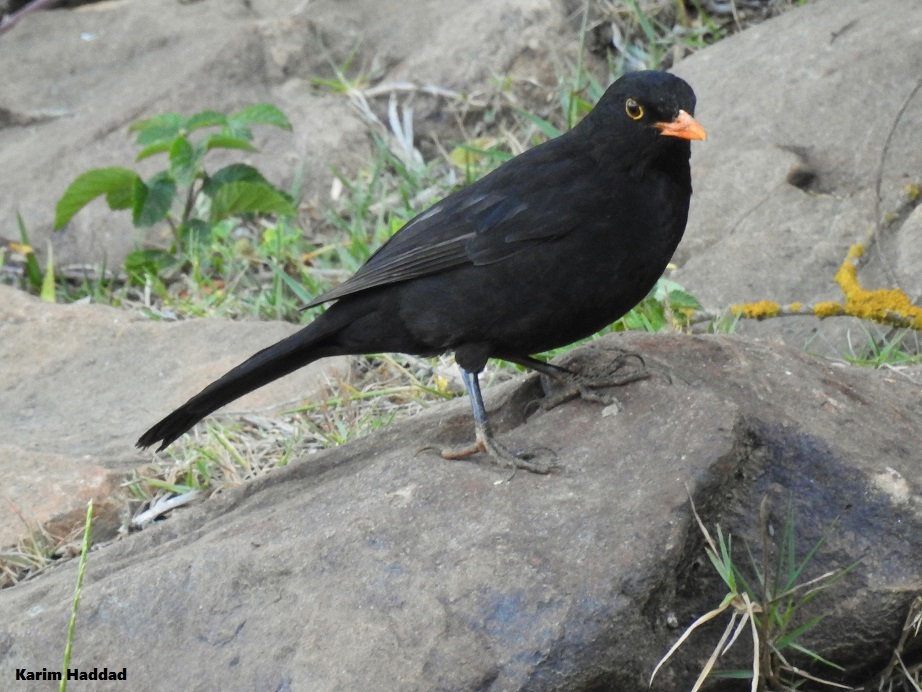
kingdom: Animalia
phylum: Chordata
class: Aves
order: Passeriformes
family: Turdidae
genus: Turdus
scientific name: Turdus merula
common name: Common blackbird
